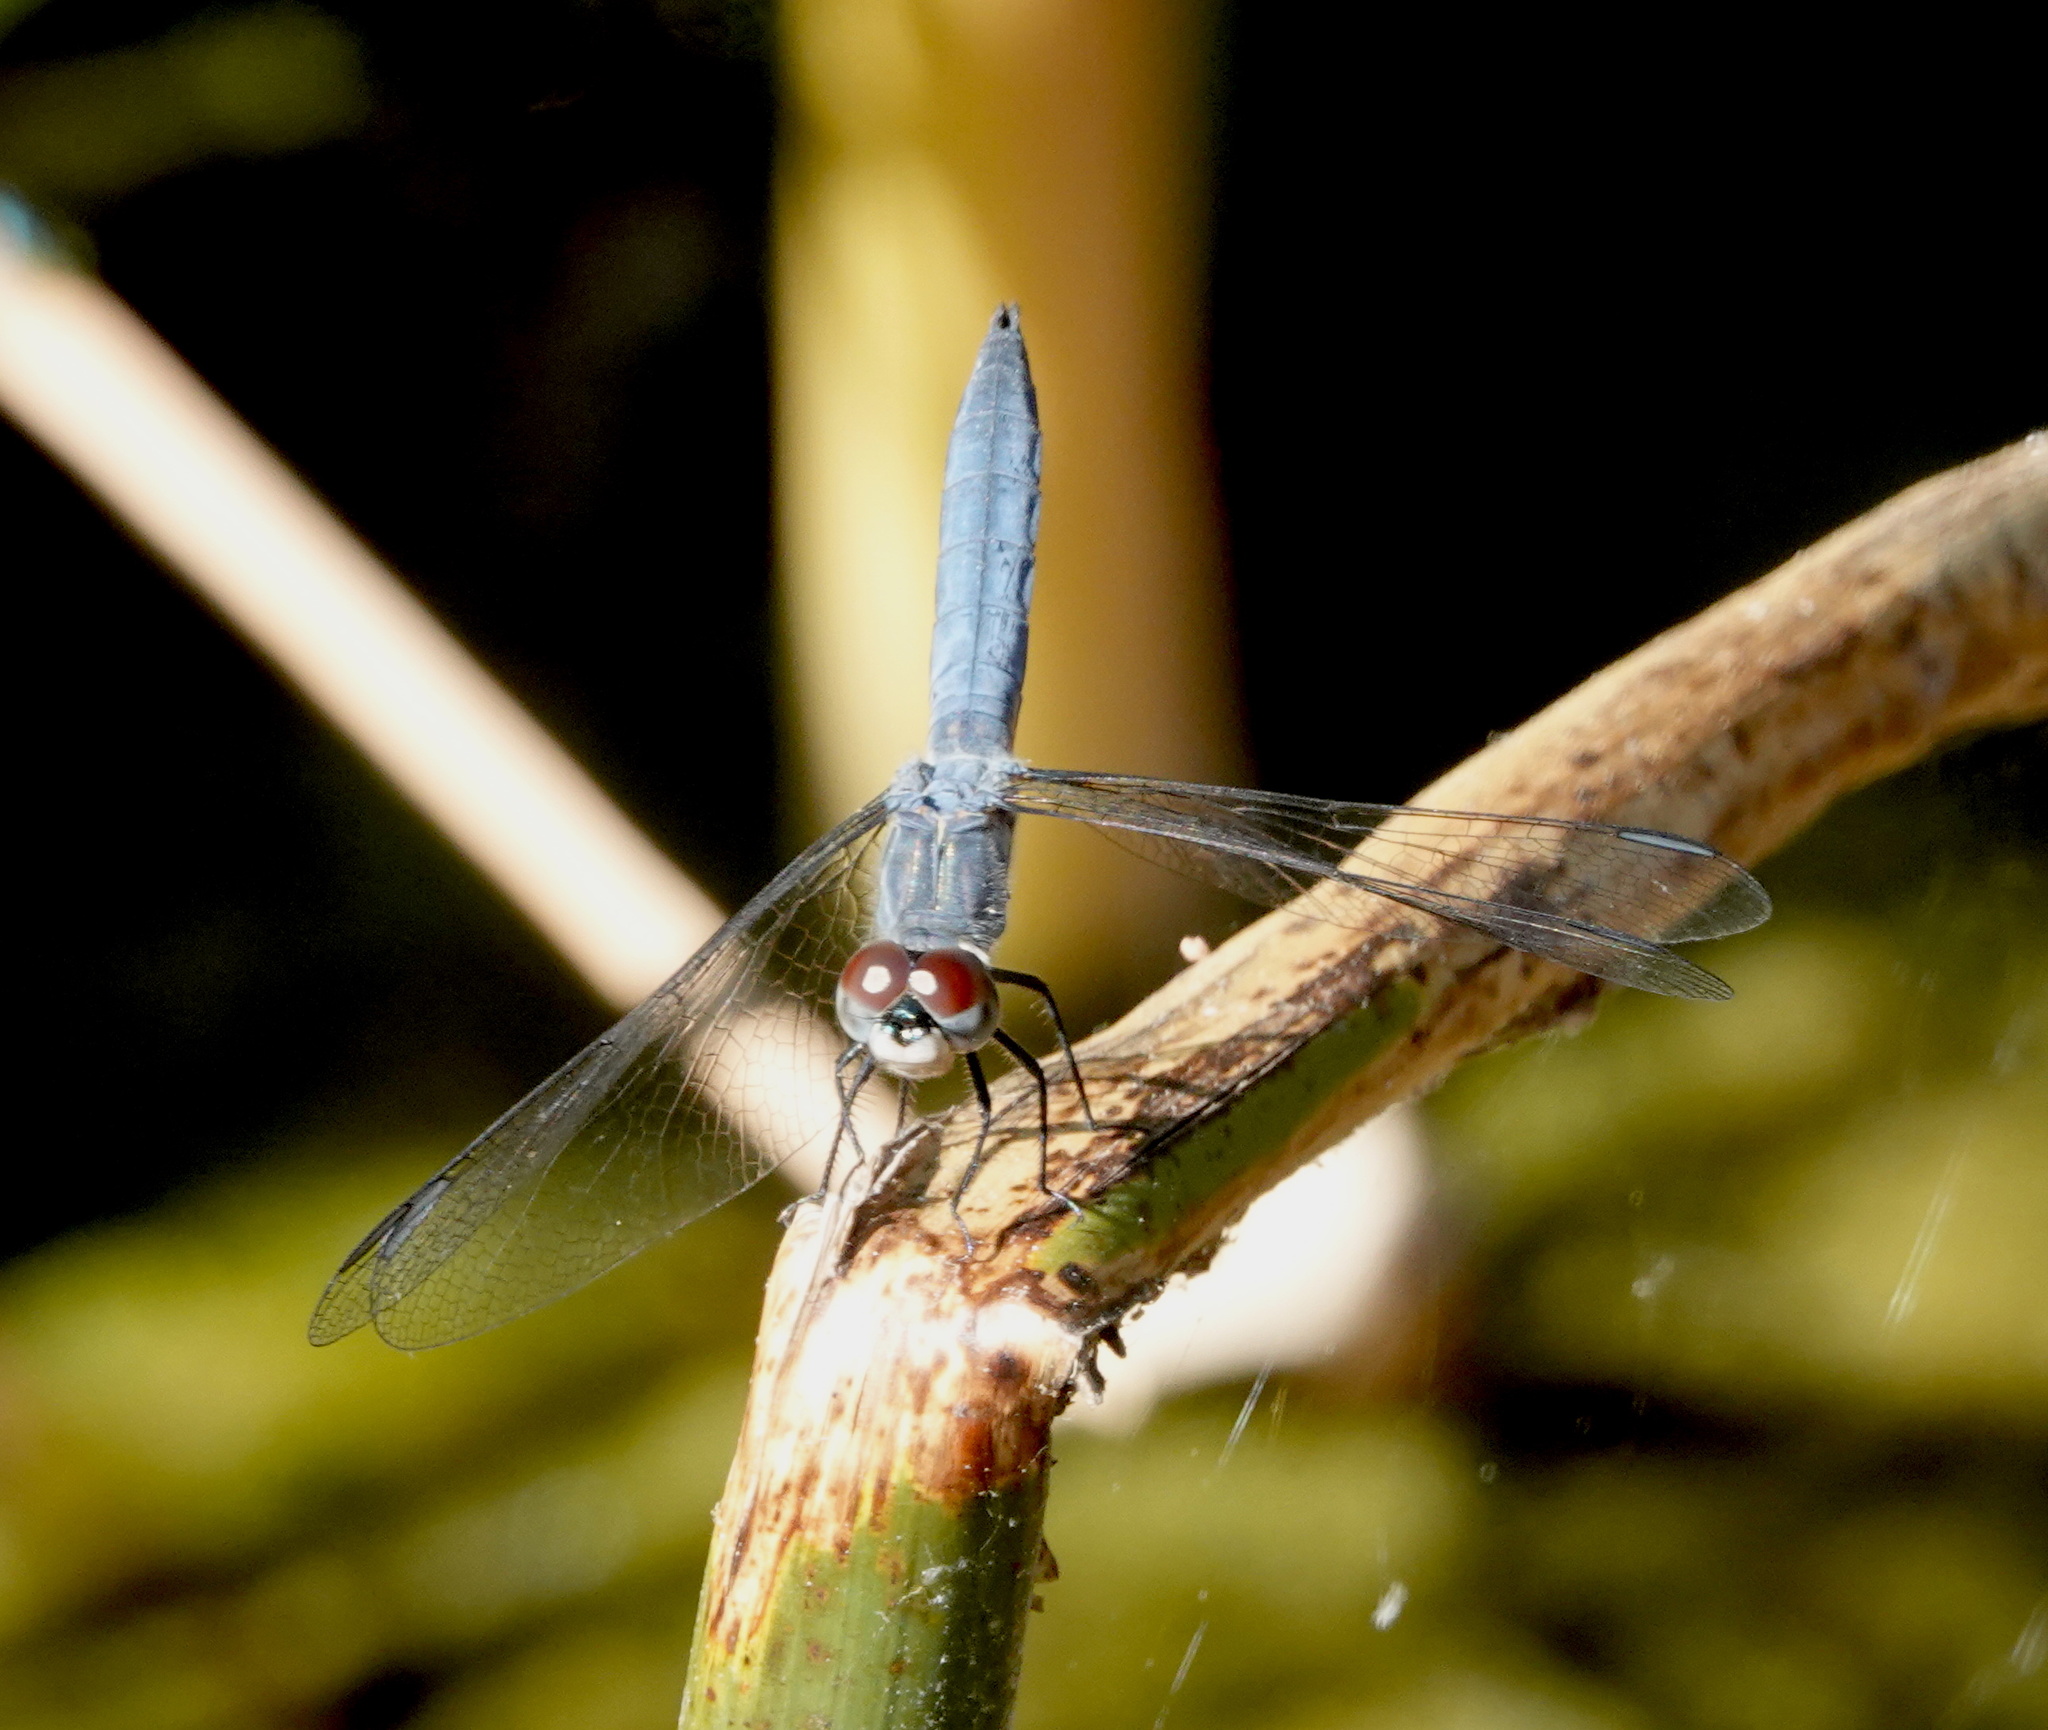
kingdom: Animalia
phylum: Arthropoda
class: Insecta
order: Odonata
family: Libellulidae
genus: Pachydiplax
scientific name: Pachydiplax longipennis
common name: Blue dasher
